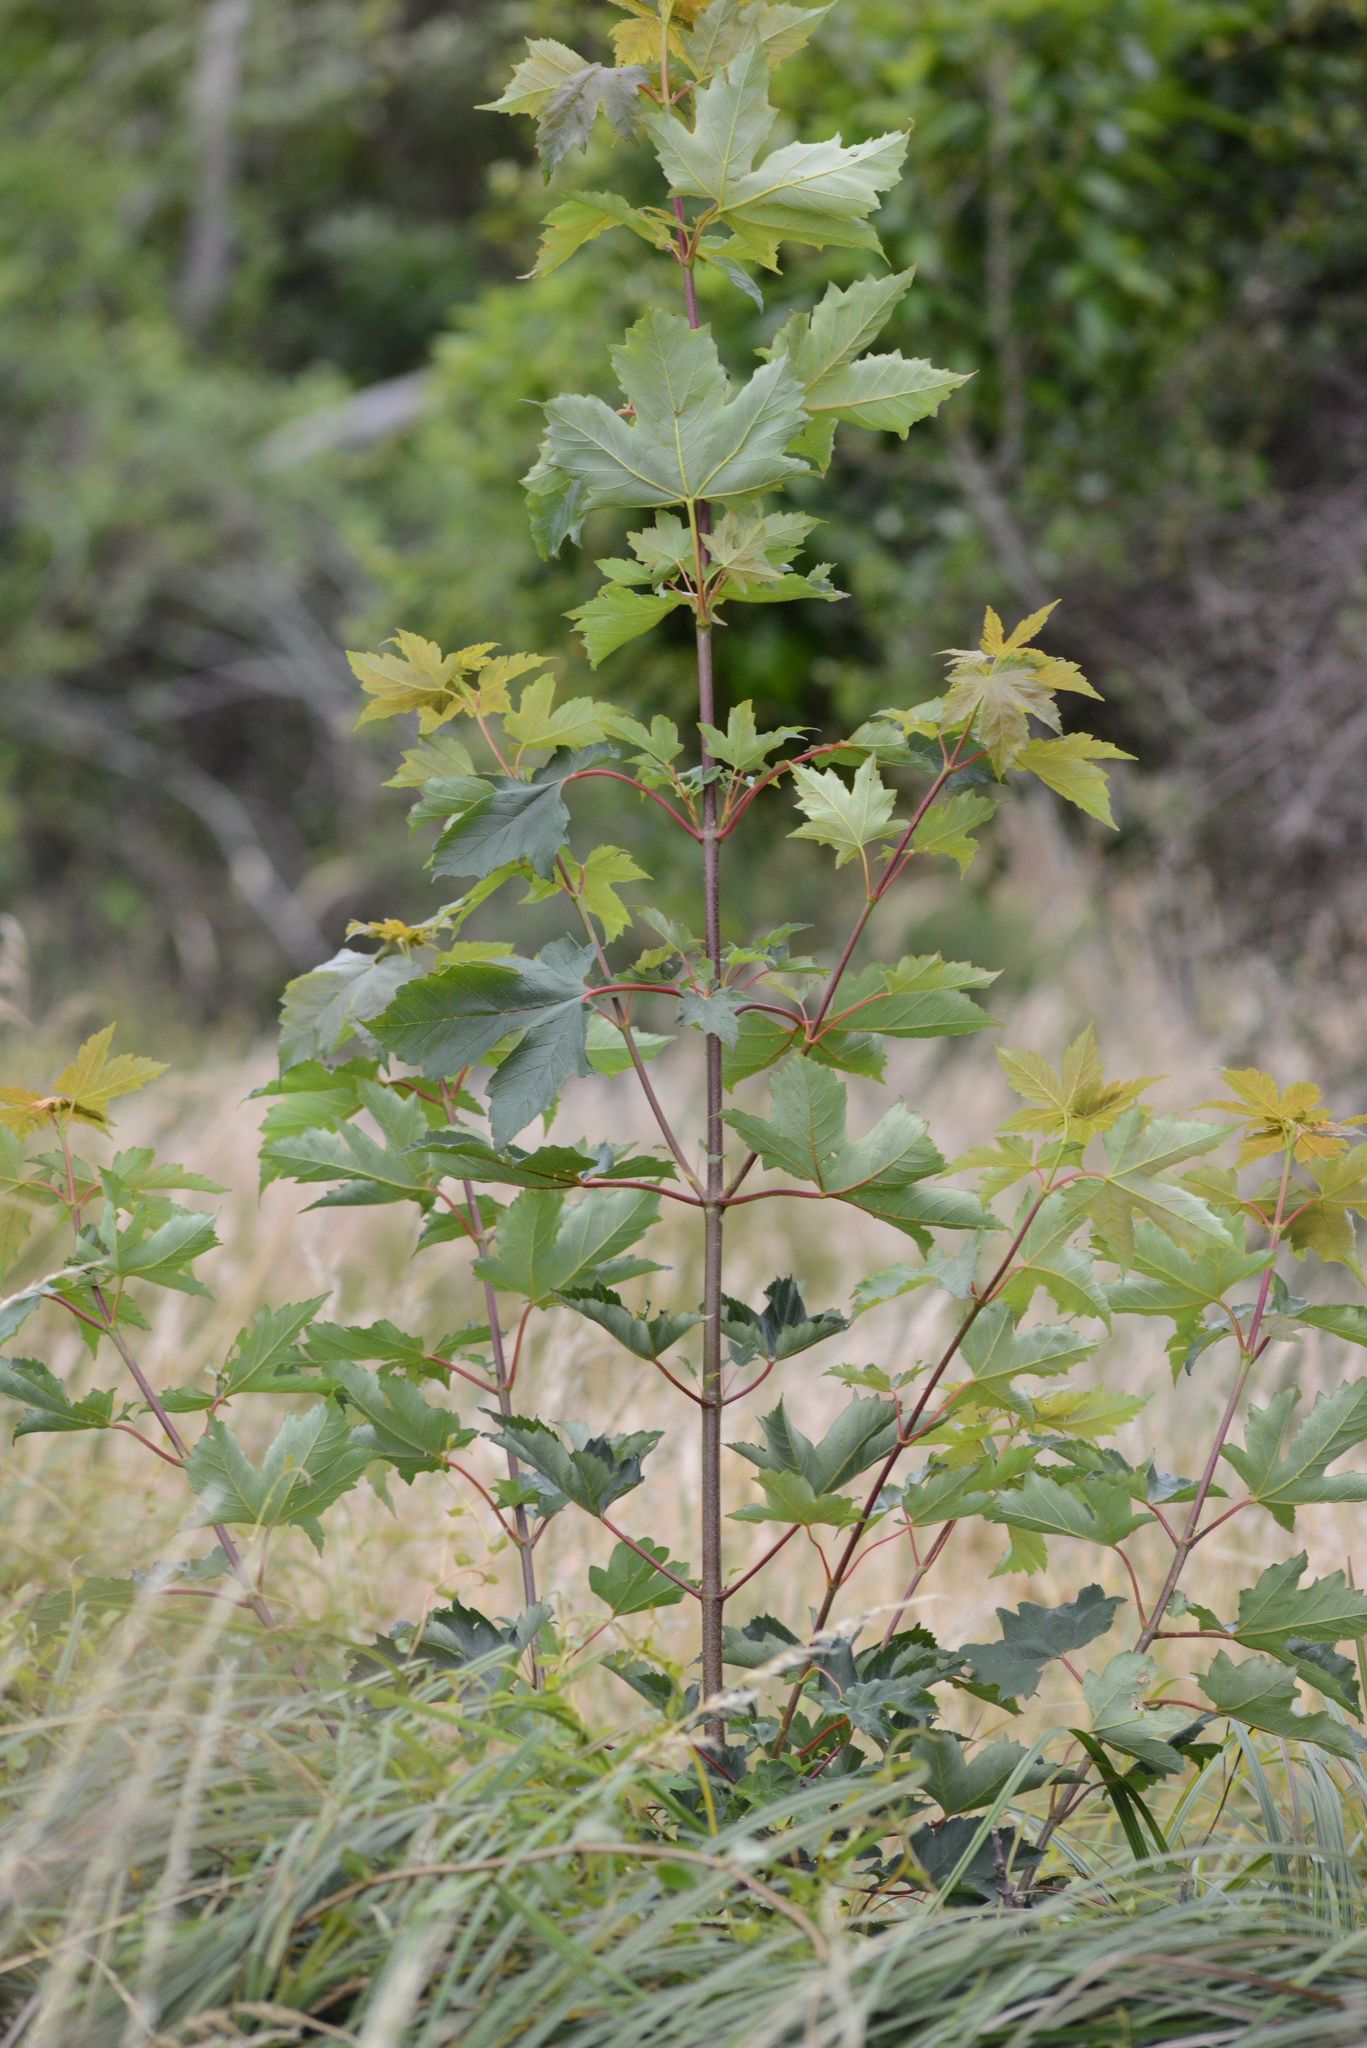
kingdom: Plantae
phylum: Tracheophyta
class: Magnoliopsida
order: Sapindales
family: Sapindaceae
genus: Acer
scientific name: Acer pseudoplatanus
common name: Sycamore
